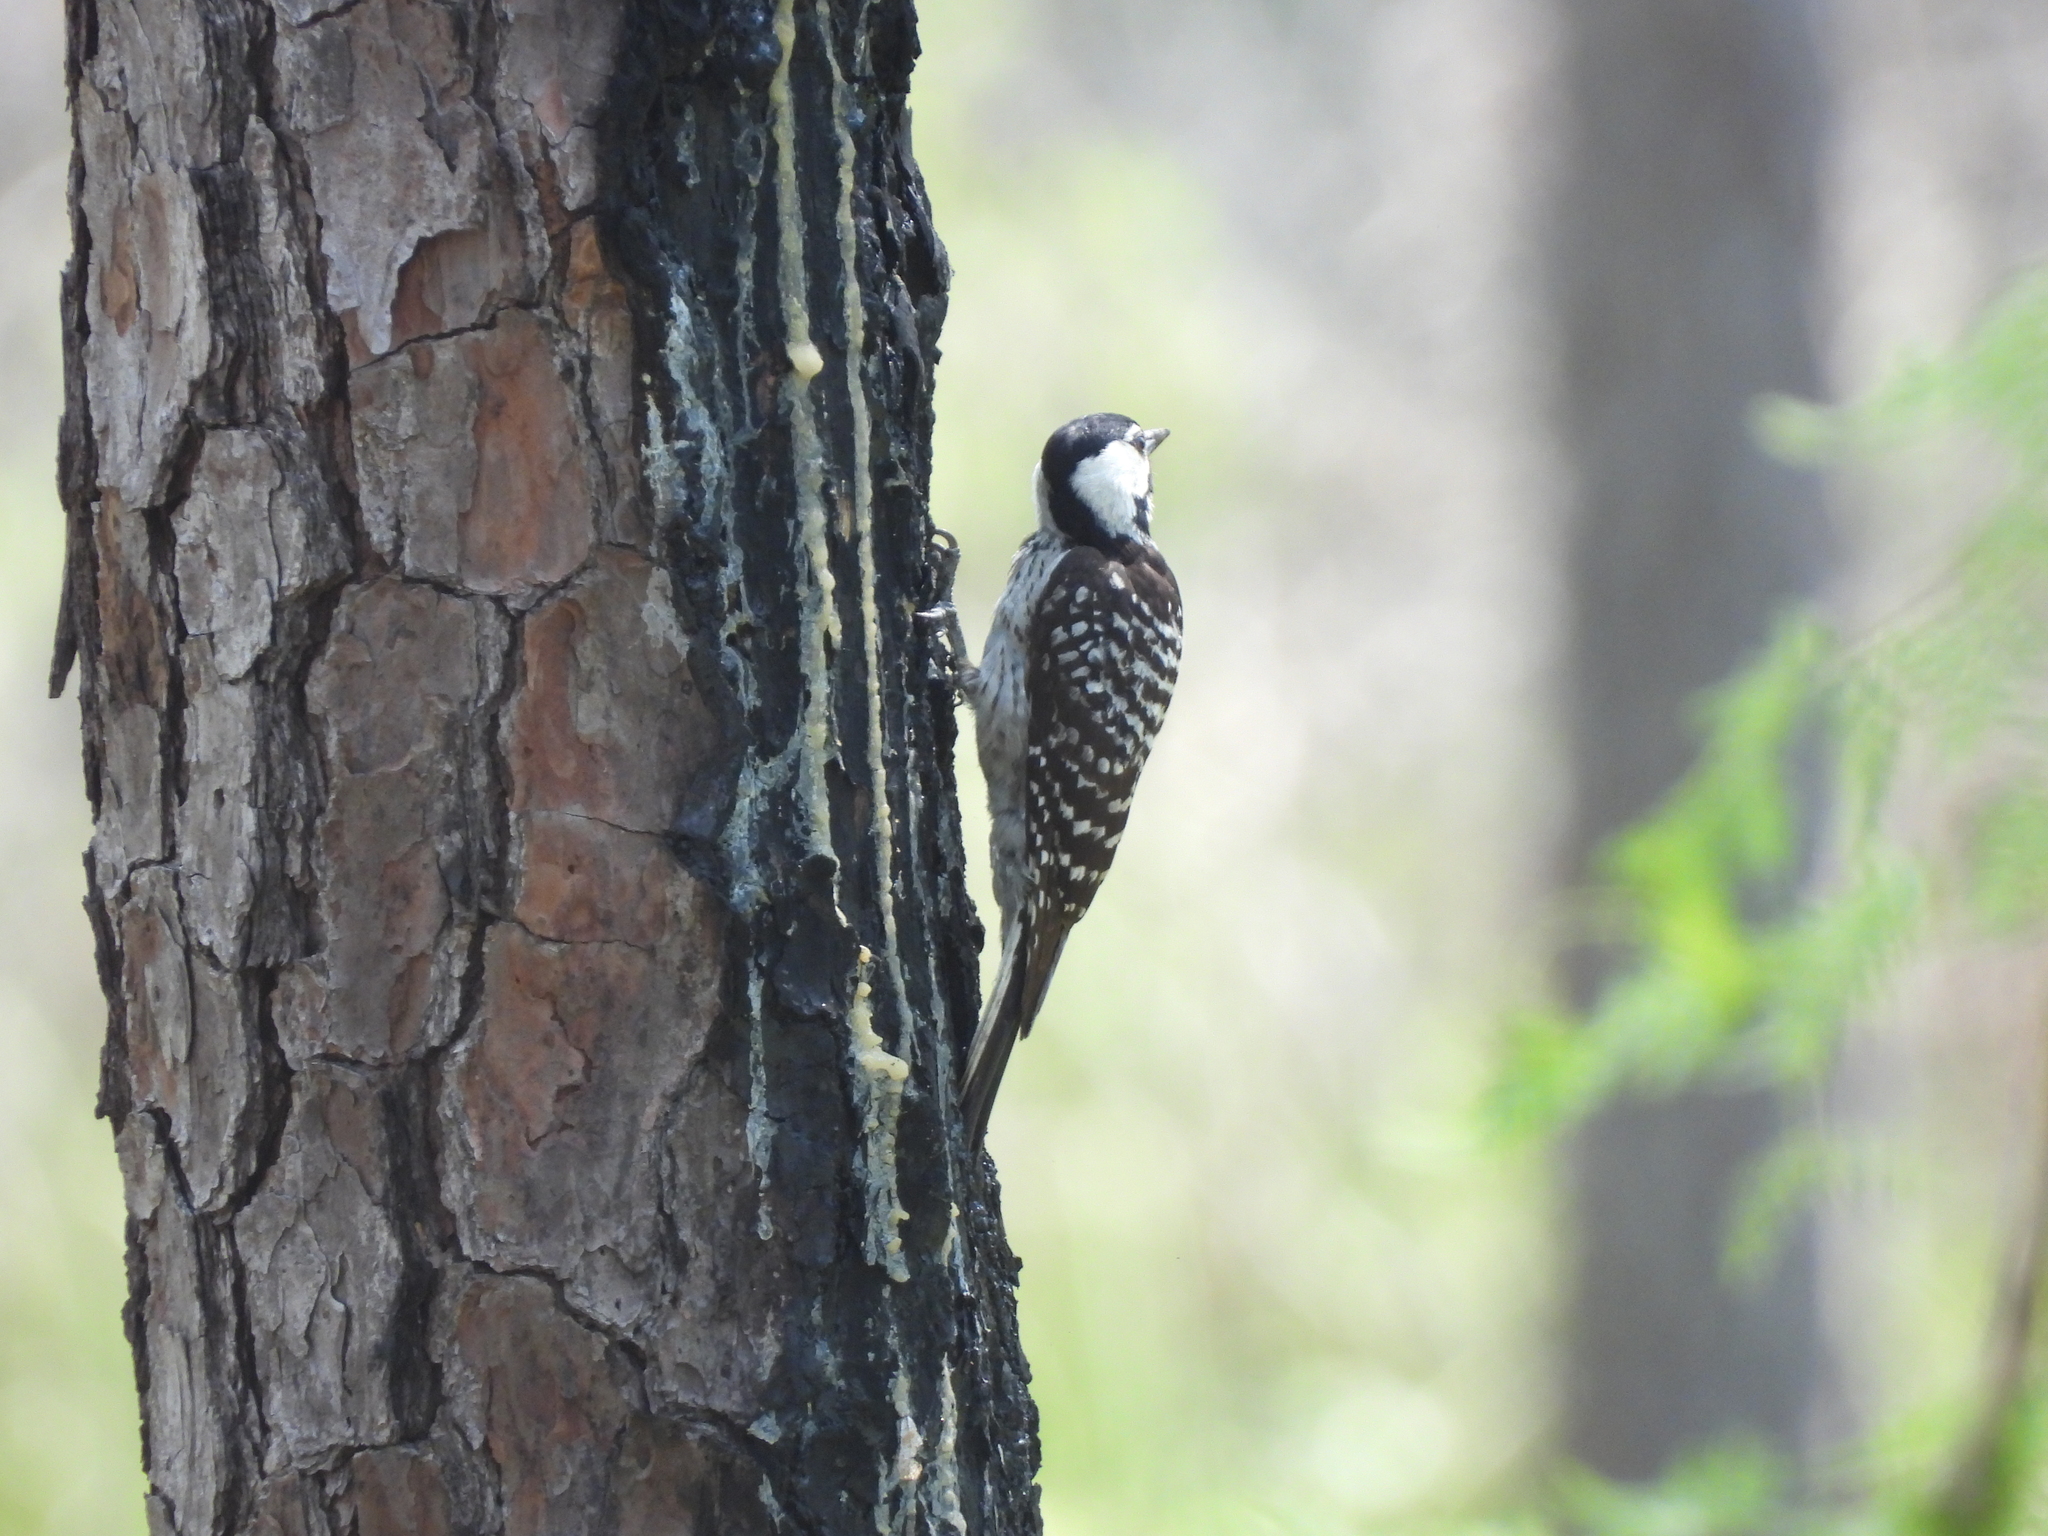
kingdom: Animalia
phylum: Chordata
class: Aves
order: Piciformes
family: Picidae
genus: Leuconotopicus
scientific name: Leuconotopicus borealis
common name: Red-cockaded woodpecker
